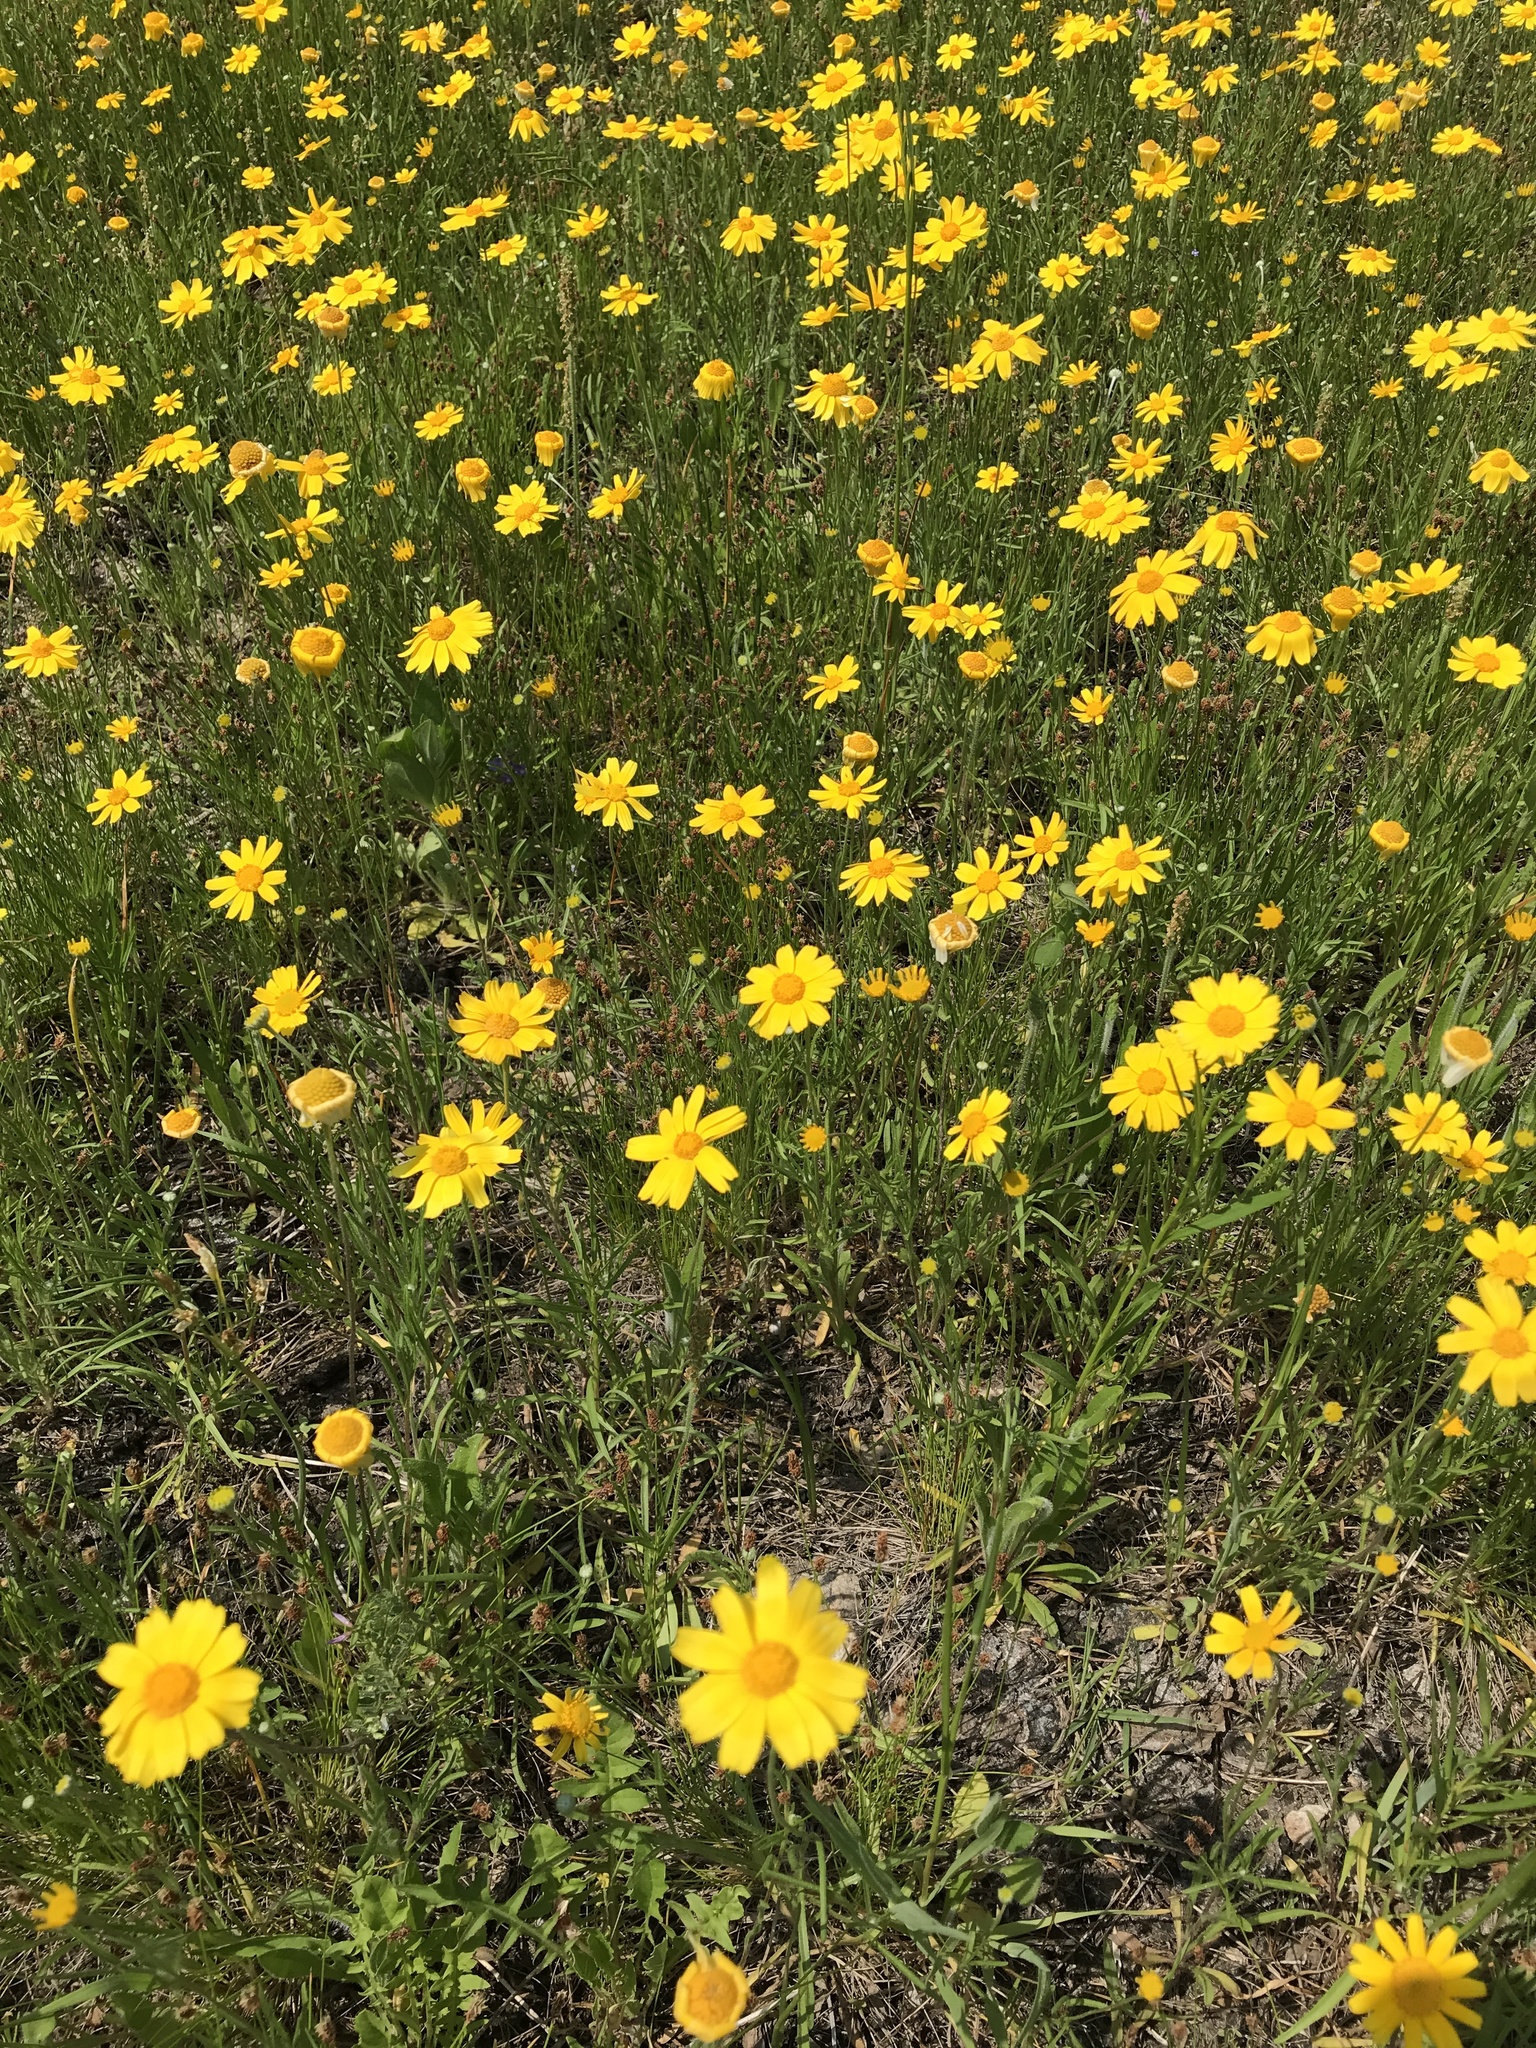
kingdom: Plantae
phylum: Tracheophyta
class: Magnoliopsida
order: Asterales
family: Asteraceae
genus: Tetraneuris
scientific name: Tetraneuris scaposa
